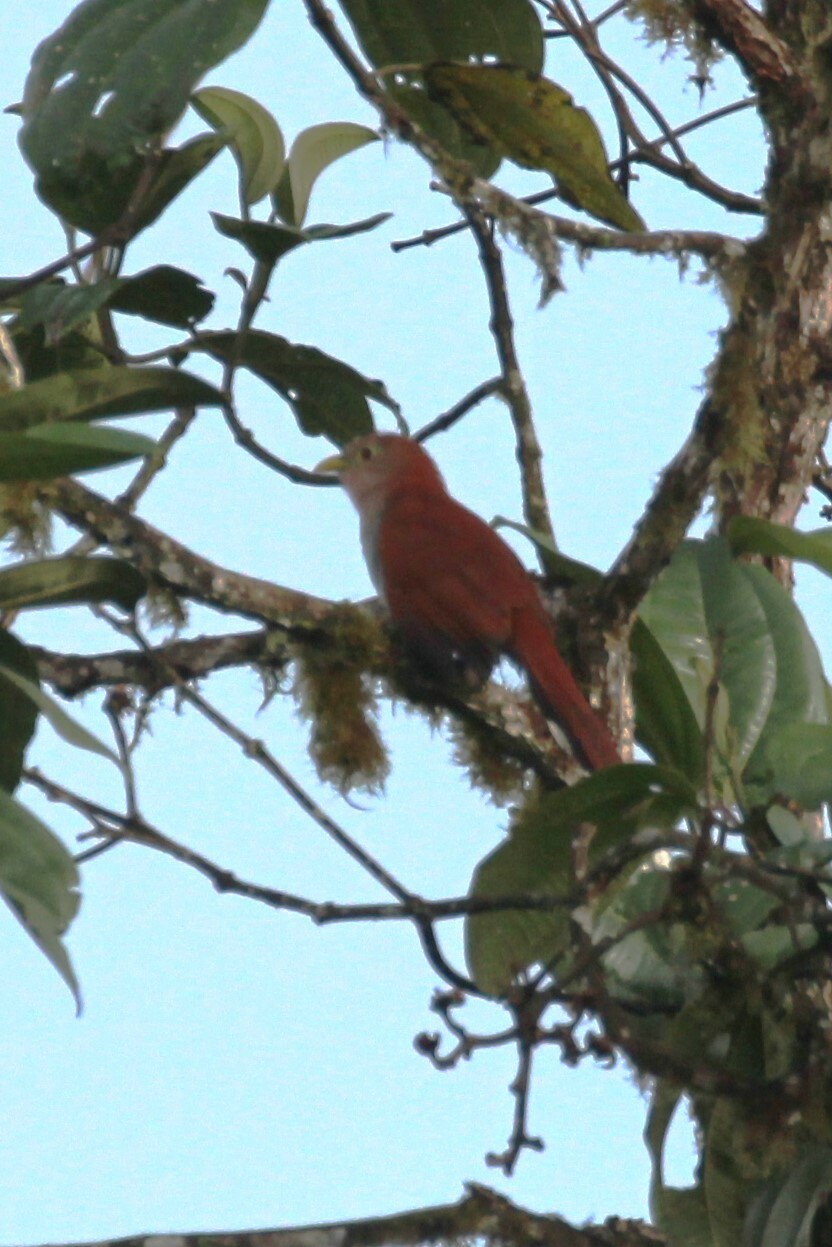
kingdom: Animalia
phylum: Chordata
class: Aves
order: Cuculiformes
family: Cuculidae
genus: Piaya
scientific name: Piaya cayana
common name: Squirrel cuckoo
